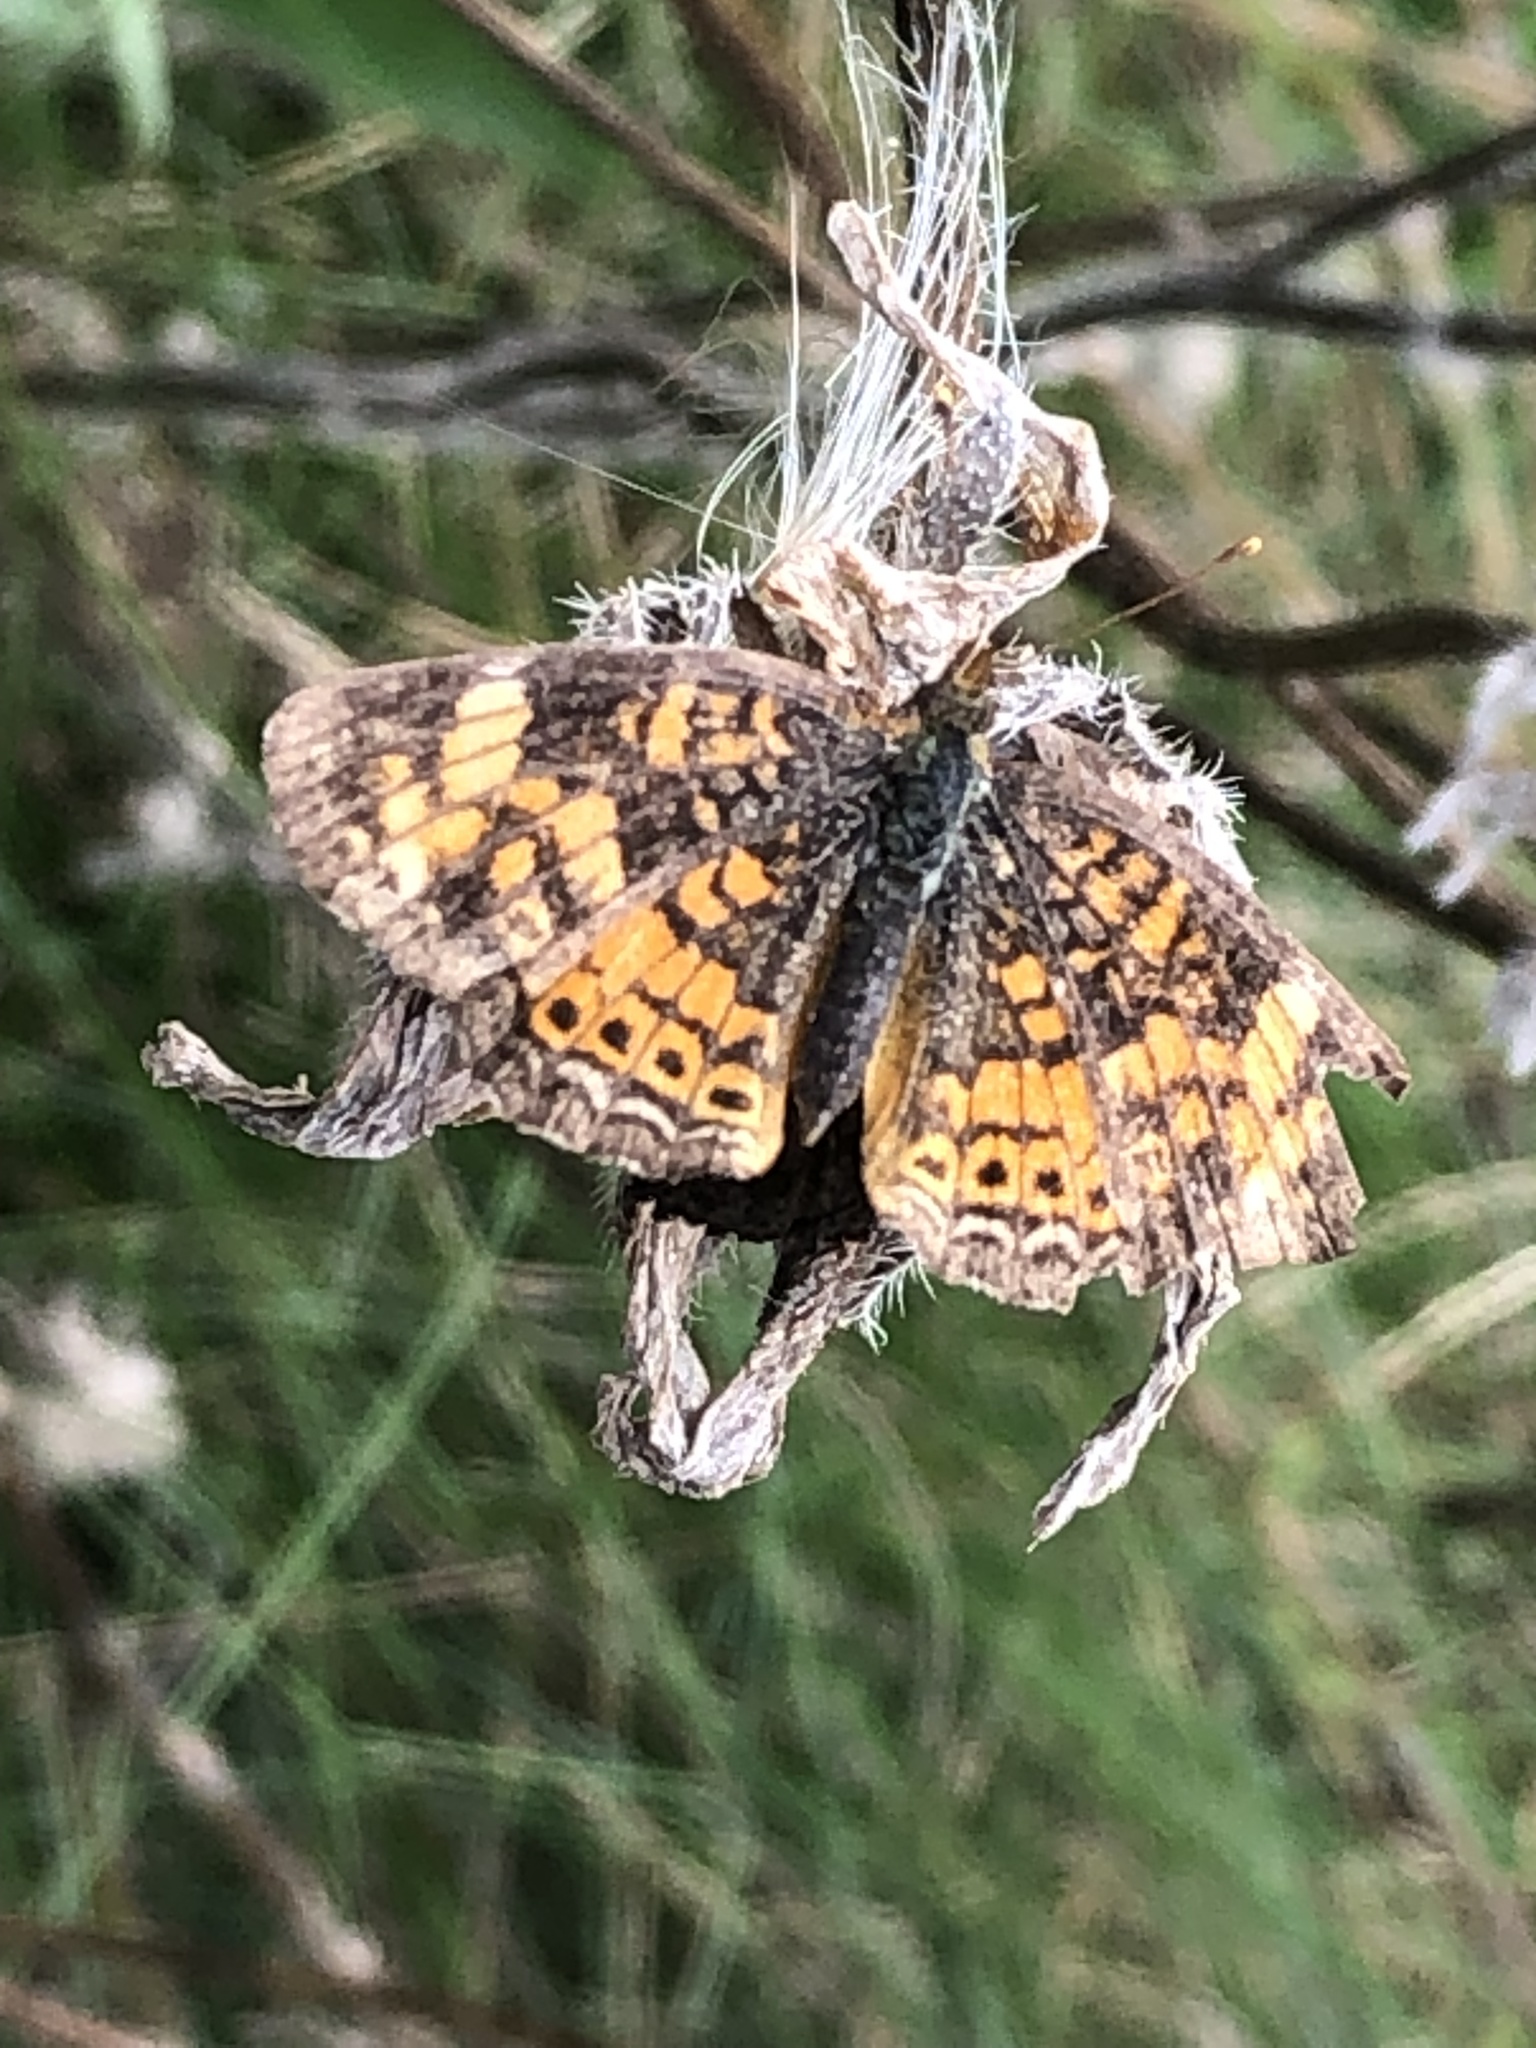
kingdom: Animalia
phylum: Arthropoda
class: Insecta
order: Lepidoptera
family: Nymphalidae
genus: Phyciodes
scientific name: Phyciodes tharos
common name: Pearl crescent
